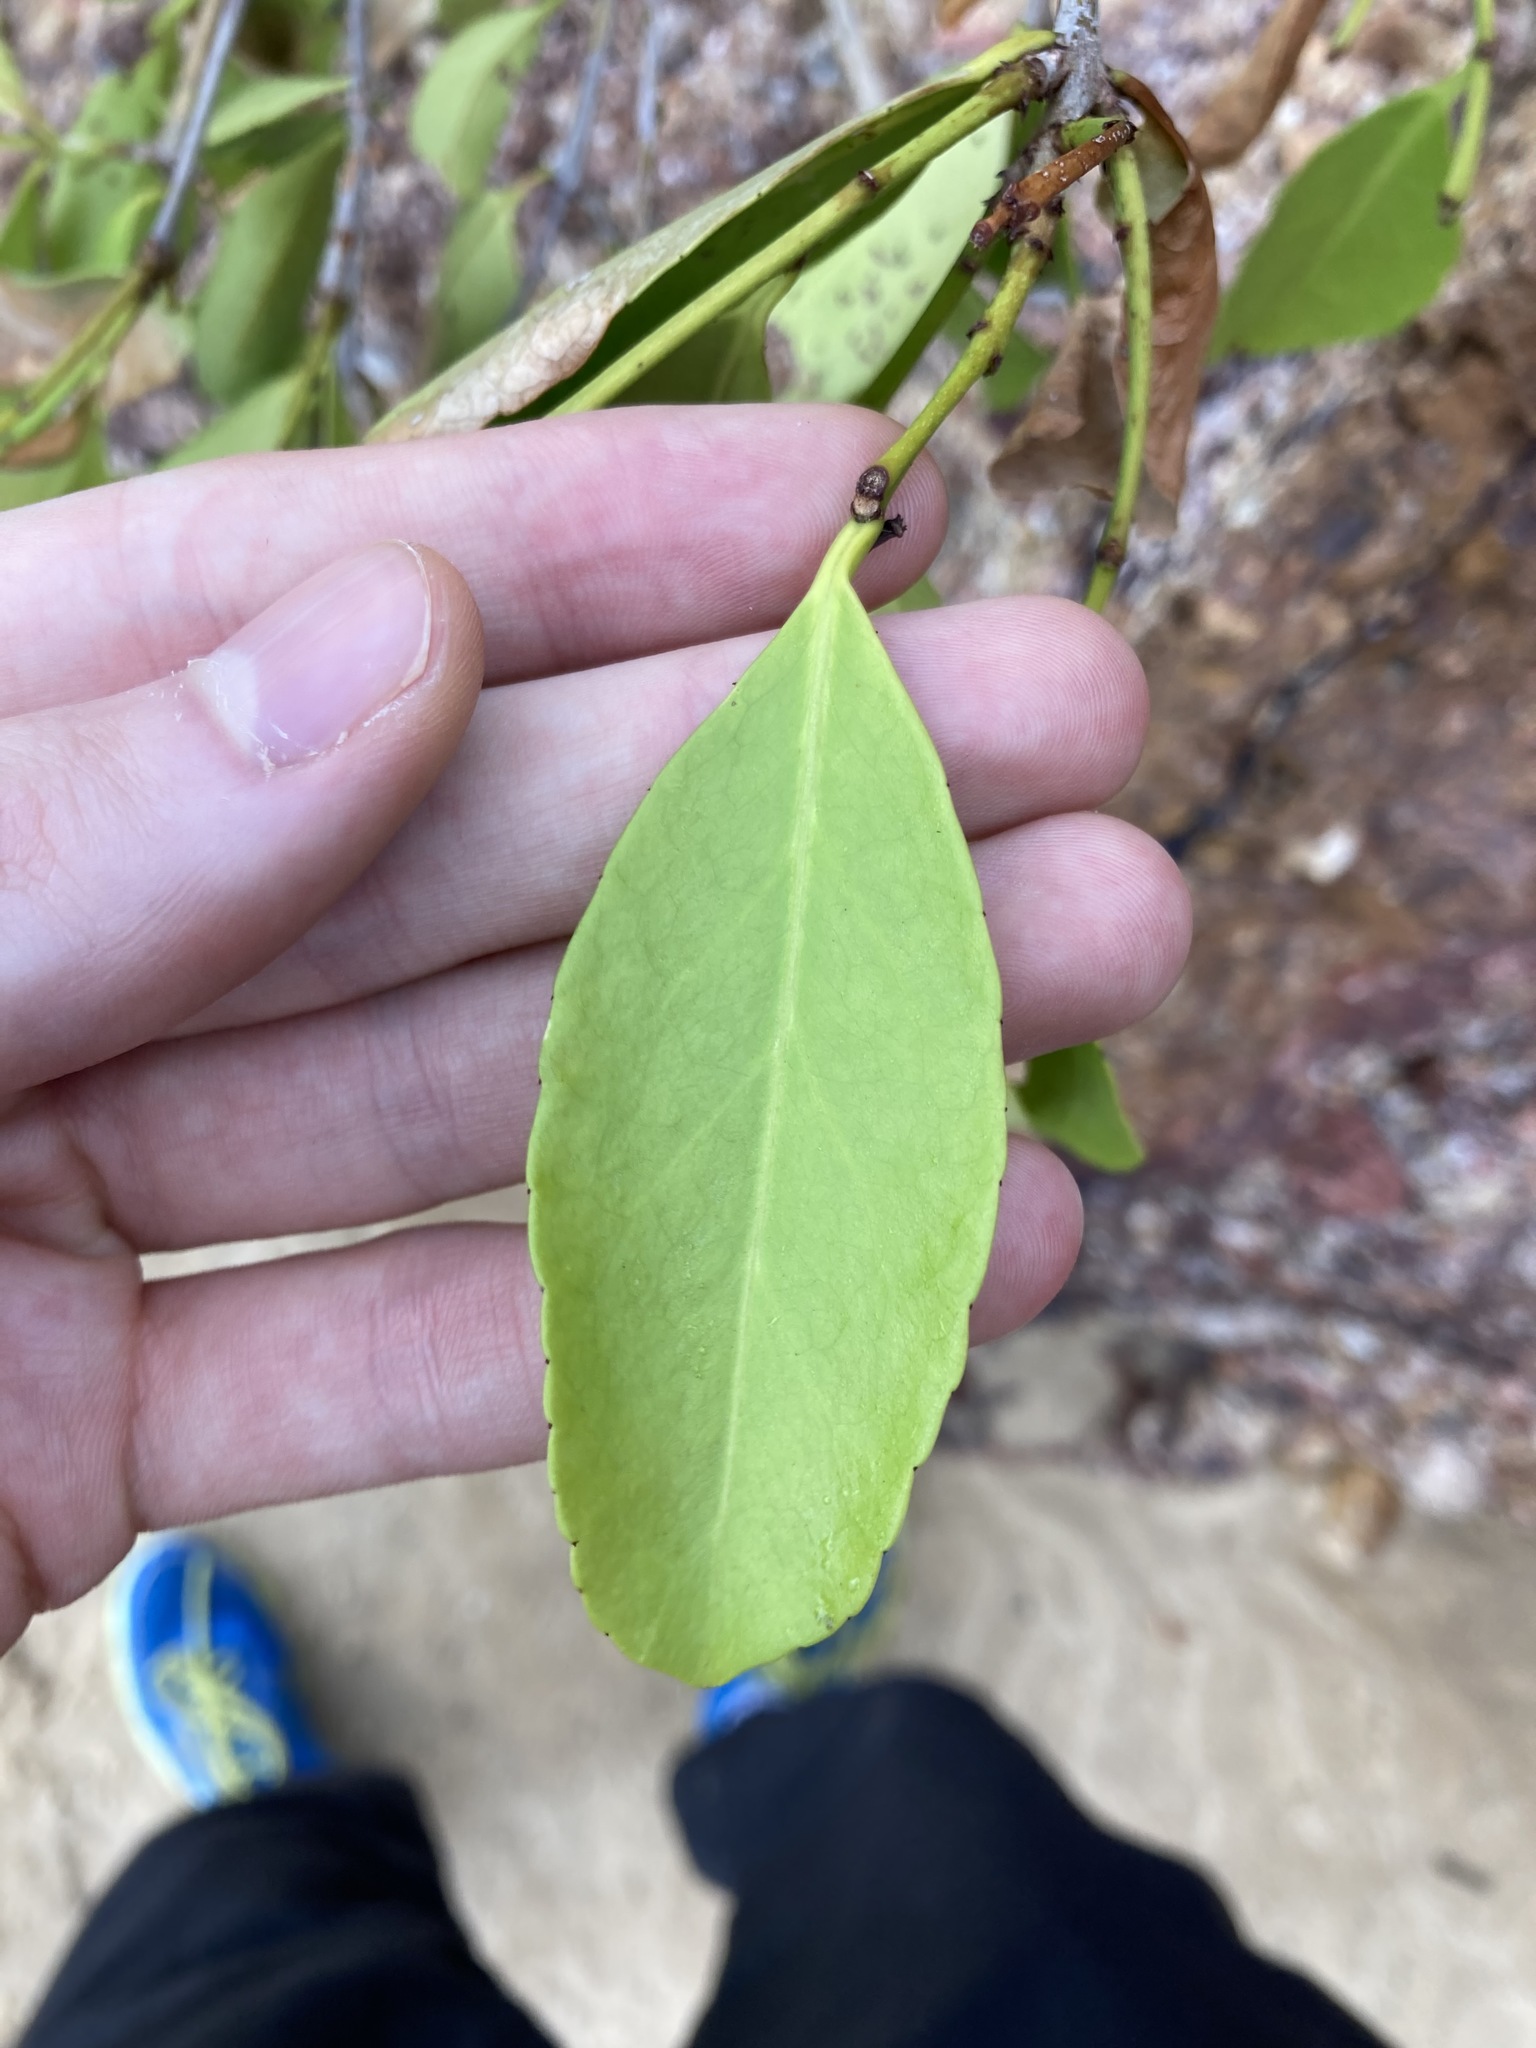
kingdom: Plantae
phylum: Tracheophyta
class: Magnoliopsida
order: Celastrales
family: Celastraceae
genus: Elaeodendron
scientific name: Elaeodendron australe
